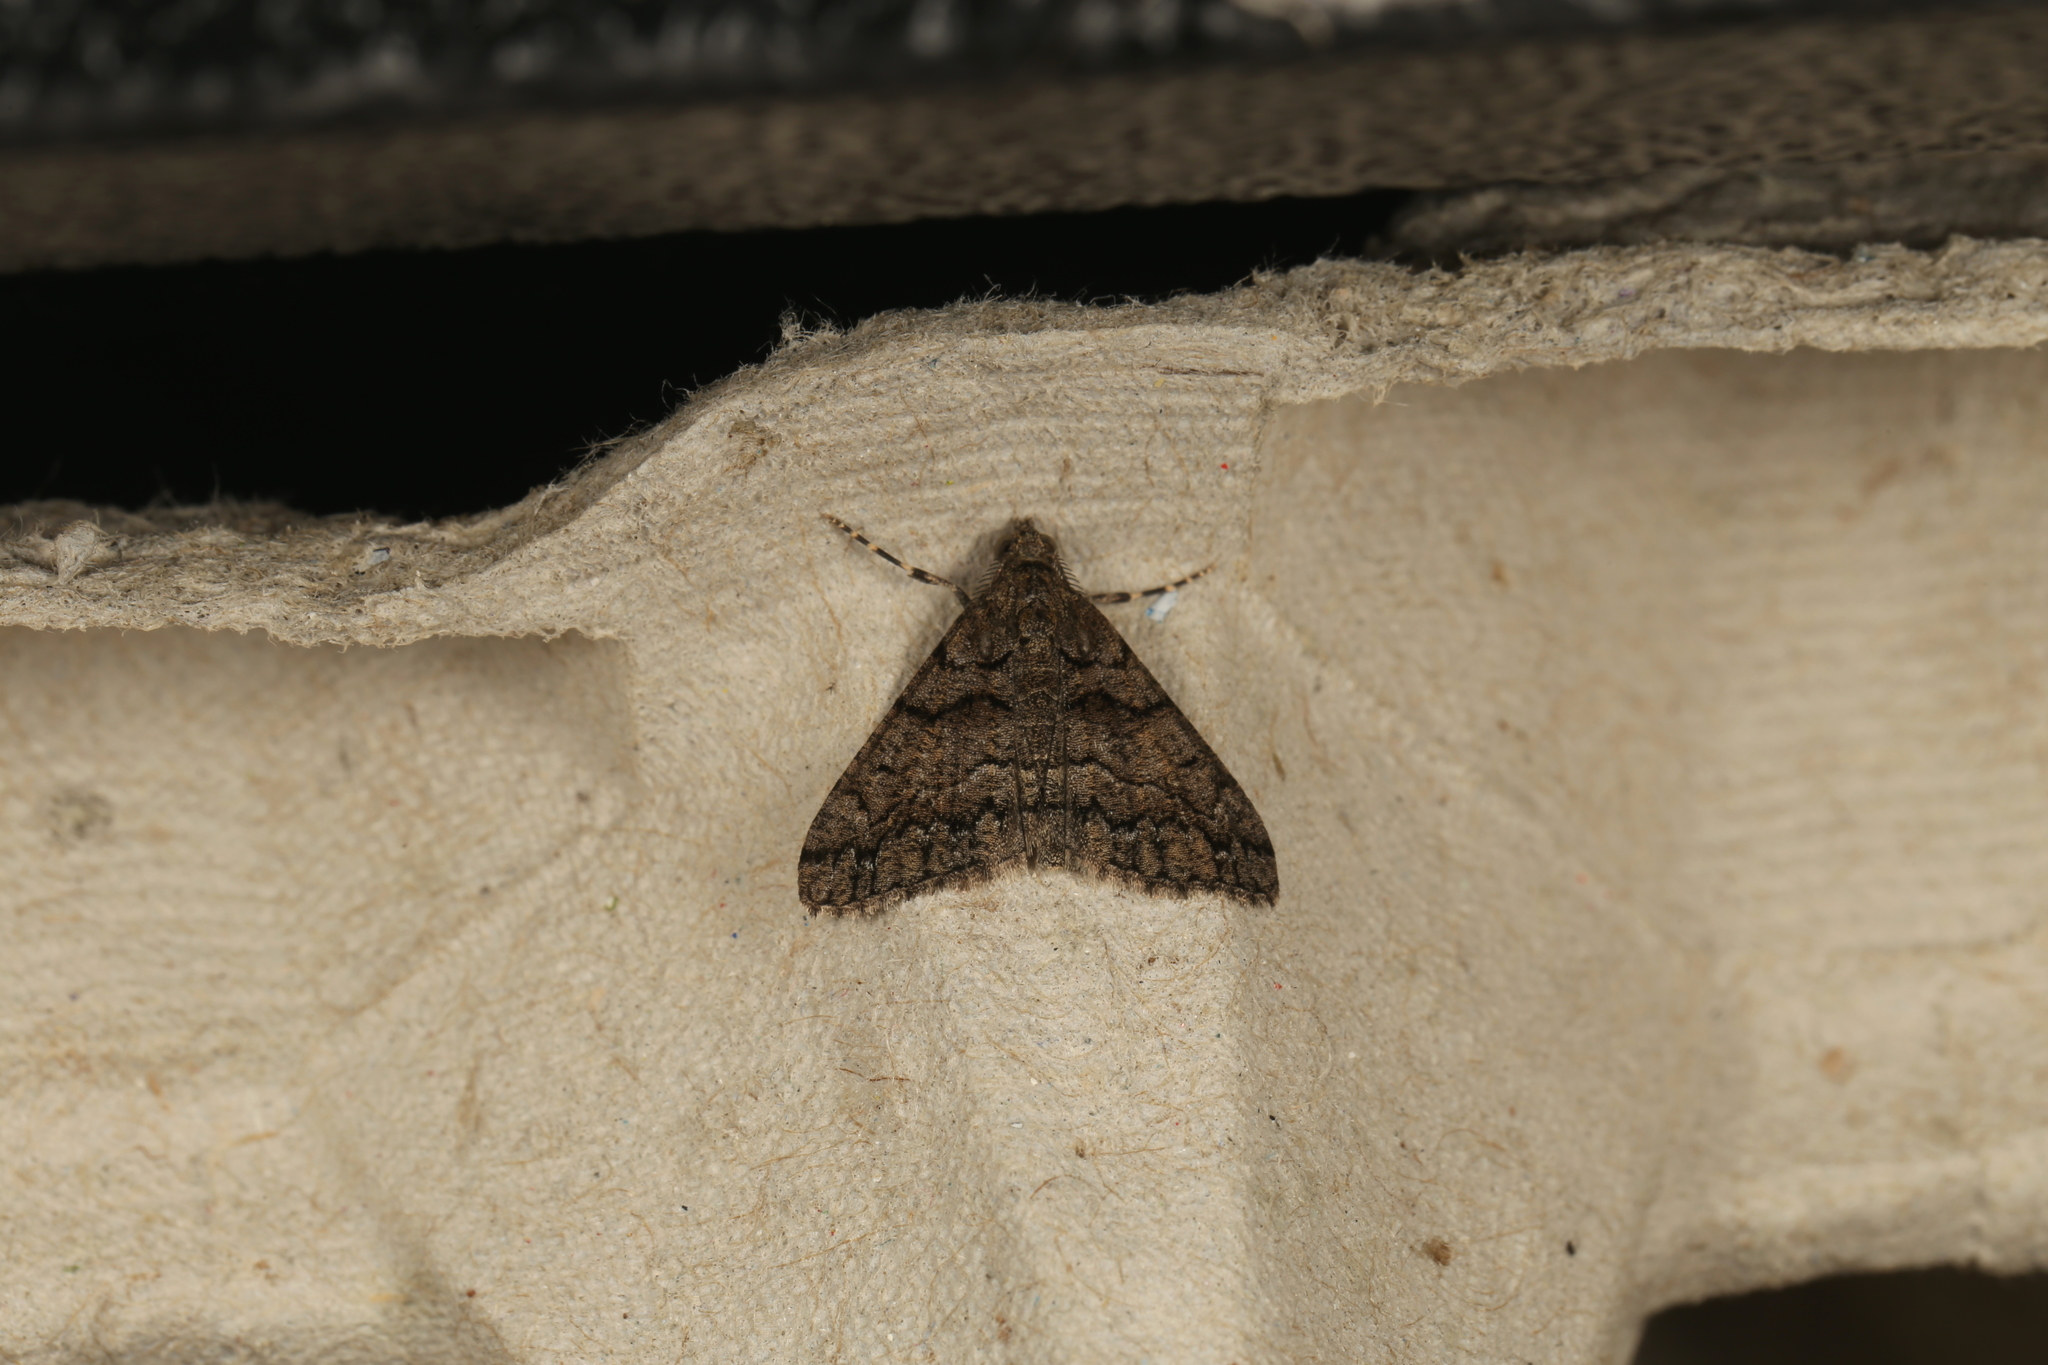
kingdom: Animalia
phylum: Arthropoda
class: Insecta
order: Lepidoptera
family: Geometridae
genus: Lipogya
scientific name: Lipogya exprimataria
